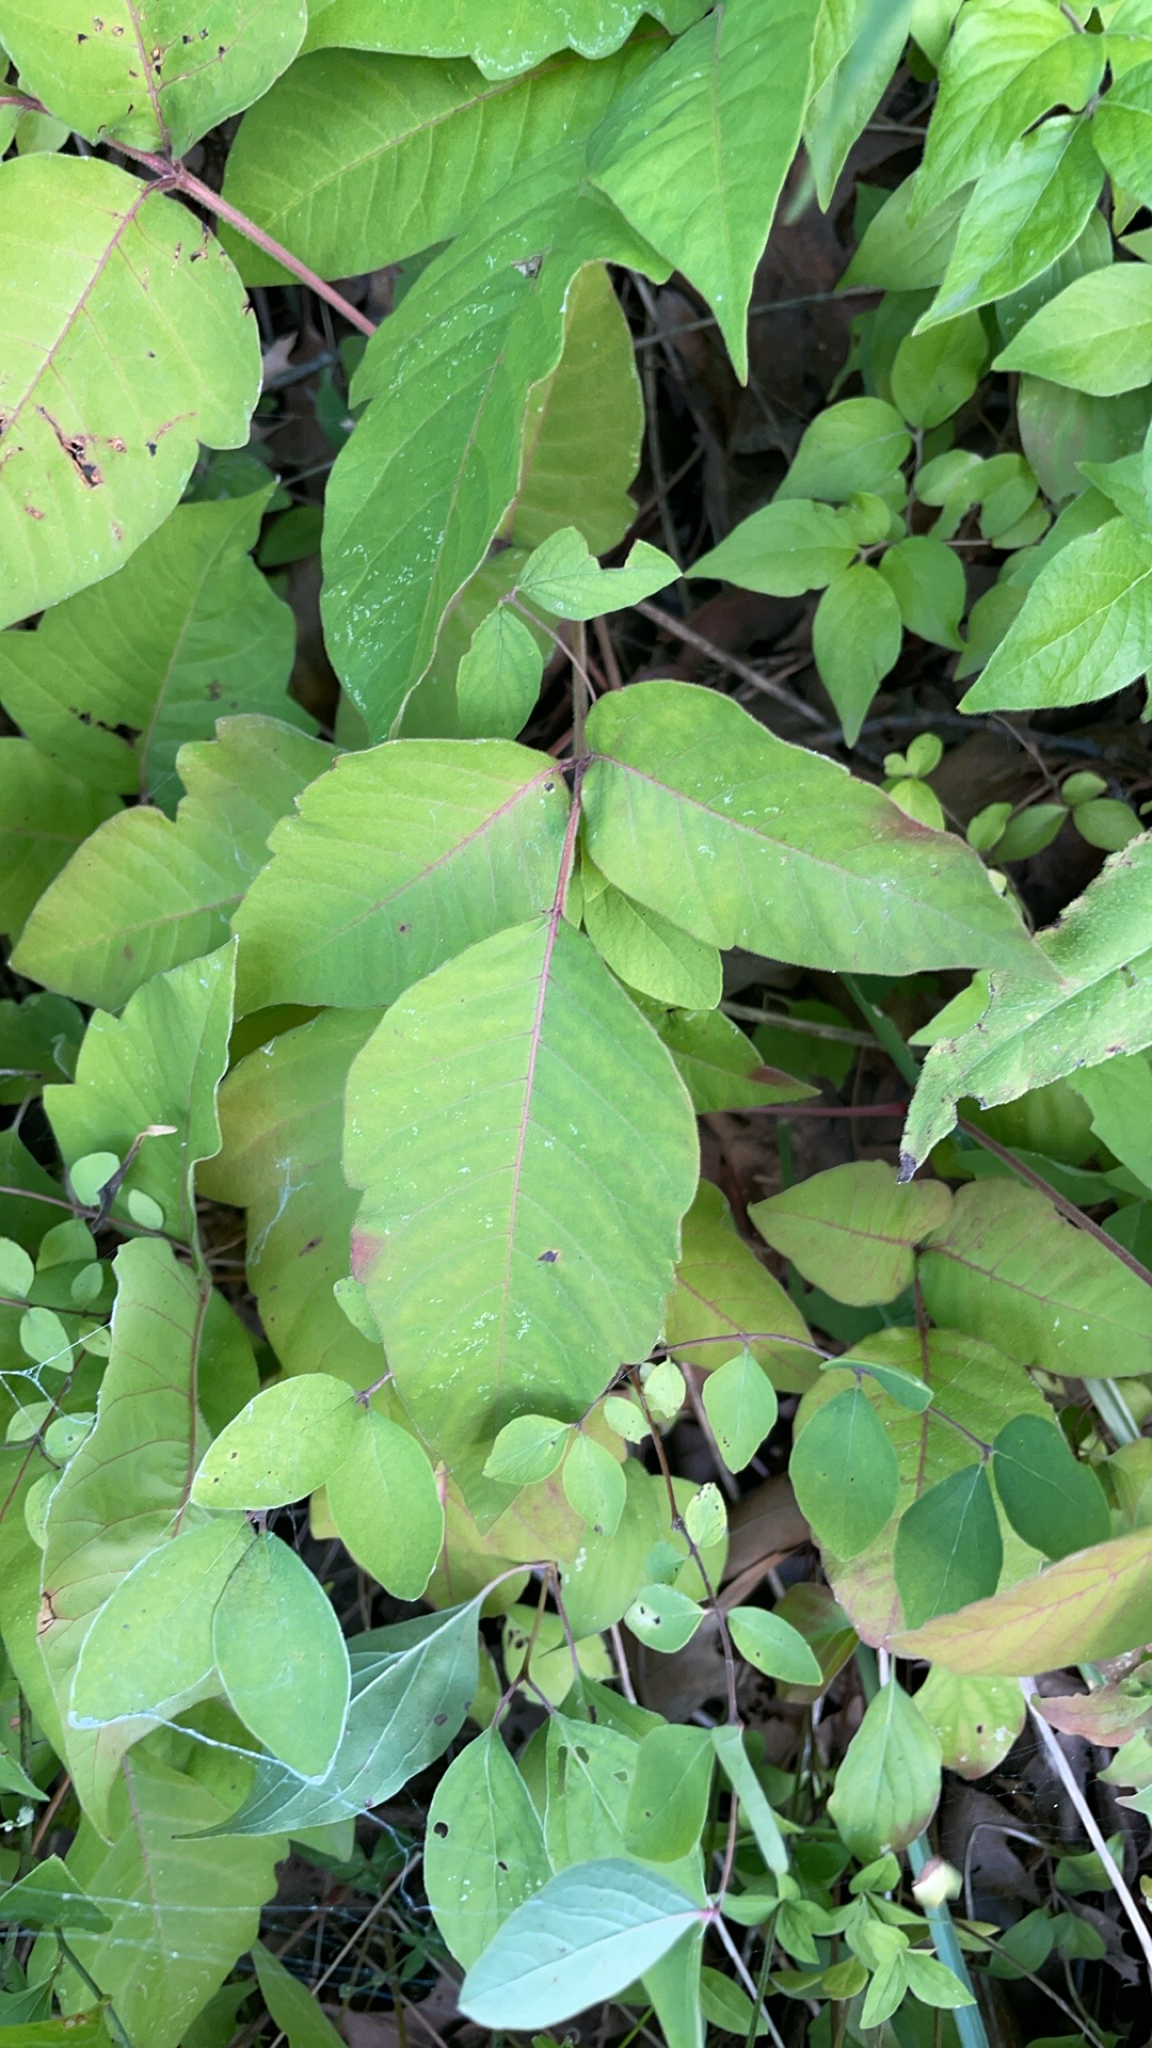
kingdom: Plantae
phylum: Tracheophyta
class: Magnoliopsida
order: Sapindales
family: Anacardiaceae
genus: Toxicodendron
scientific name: Toxicodendron radicans
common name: Poison ivy
